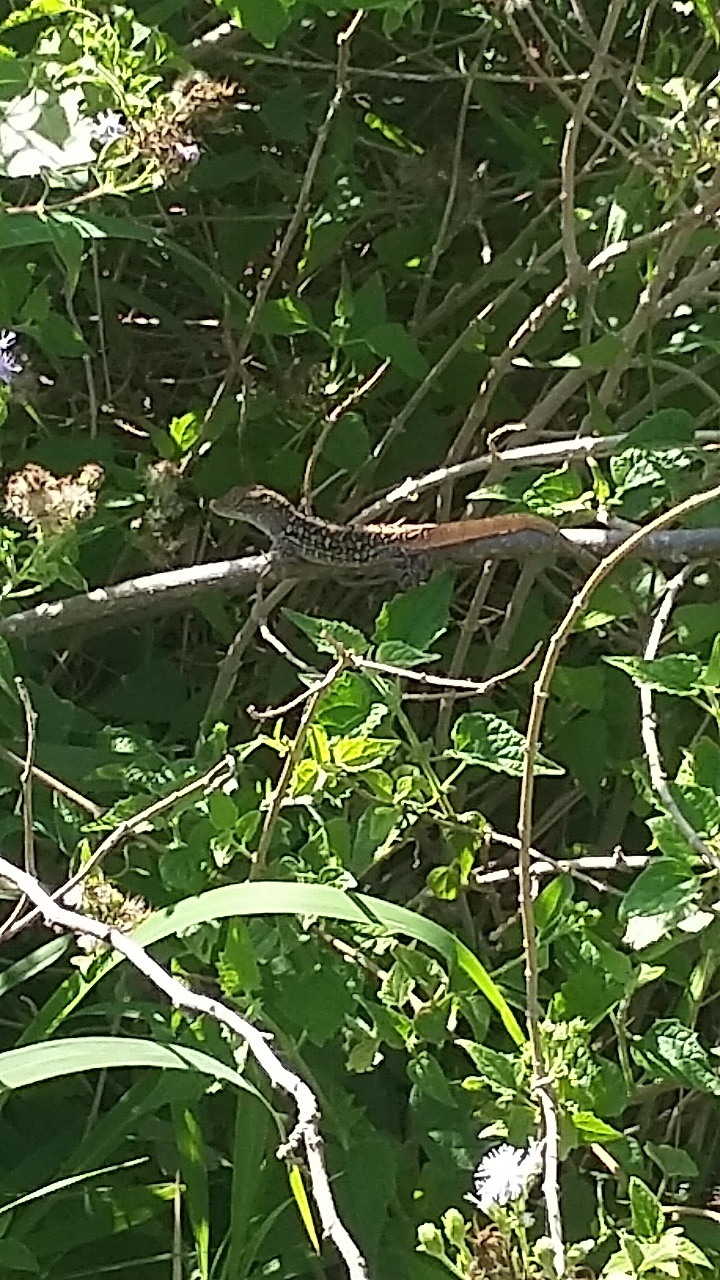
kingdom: Animalia
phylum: Chordata
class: Squamata
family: Dactyloidae
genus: Anolis
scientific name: Anolis sagrei
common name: Brown anole
